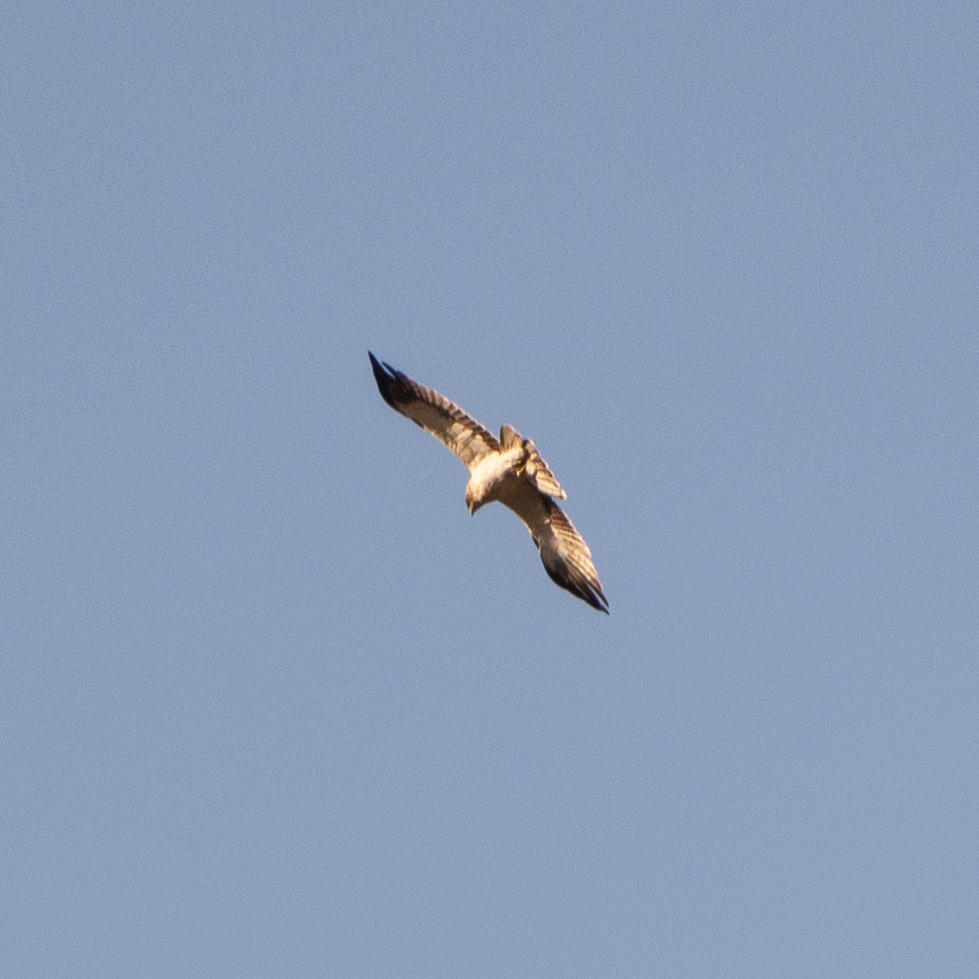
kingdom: Animalia
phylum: Chordata
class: Aves
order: Accipitriformes
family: Accipitridae
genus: Hieraaetus
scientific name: Hieraaetus pennatus
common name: Booted eagle
